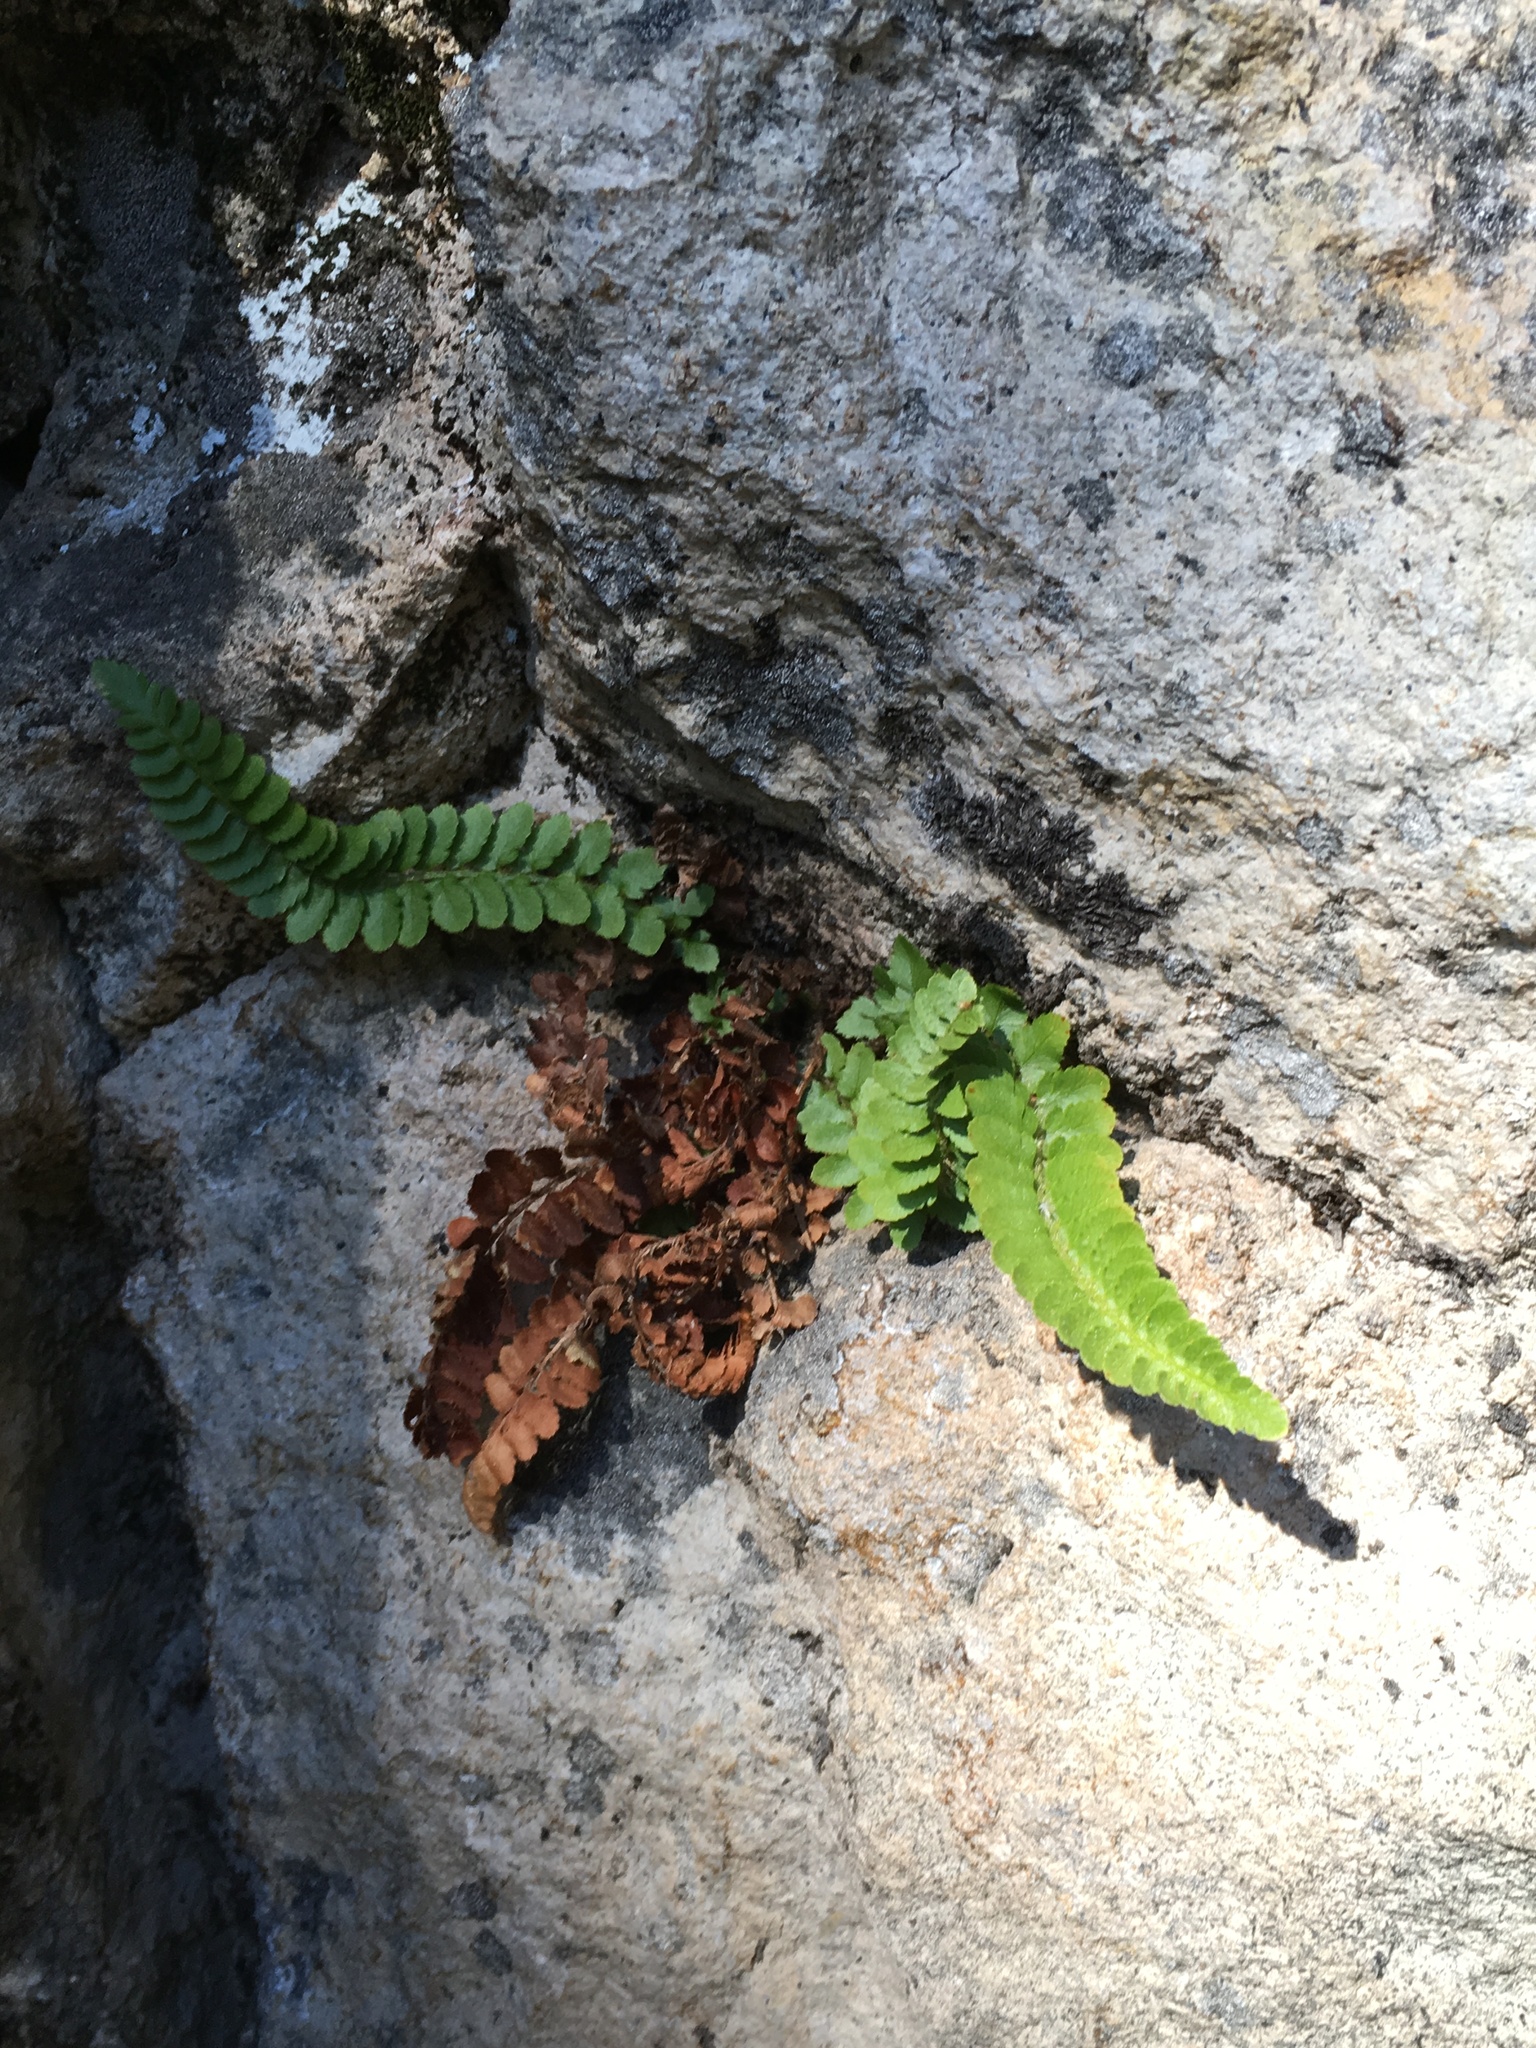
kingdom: Plantae
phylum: Tracheophyta
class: Polypodiopsida
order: Polypodiales
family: Dryopteridaceae
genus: Polystichum
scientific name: Polystichum scopulinum
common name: Eaton's shield fern
